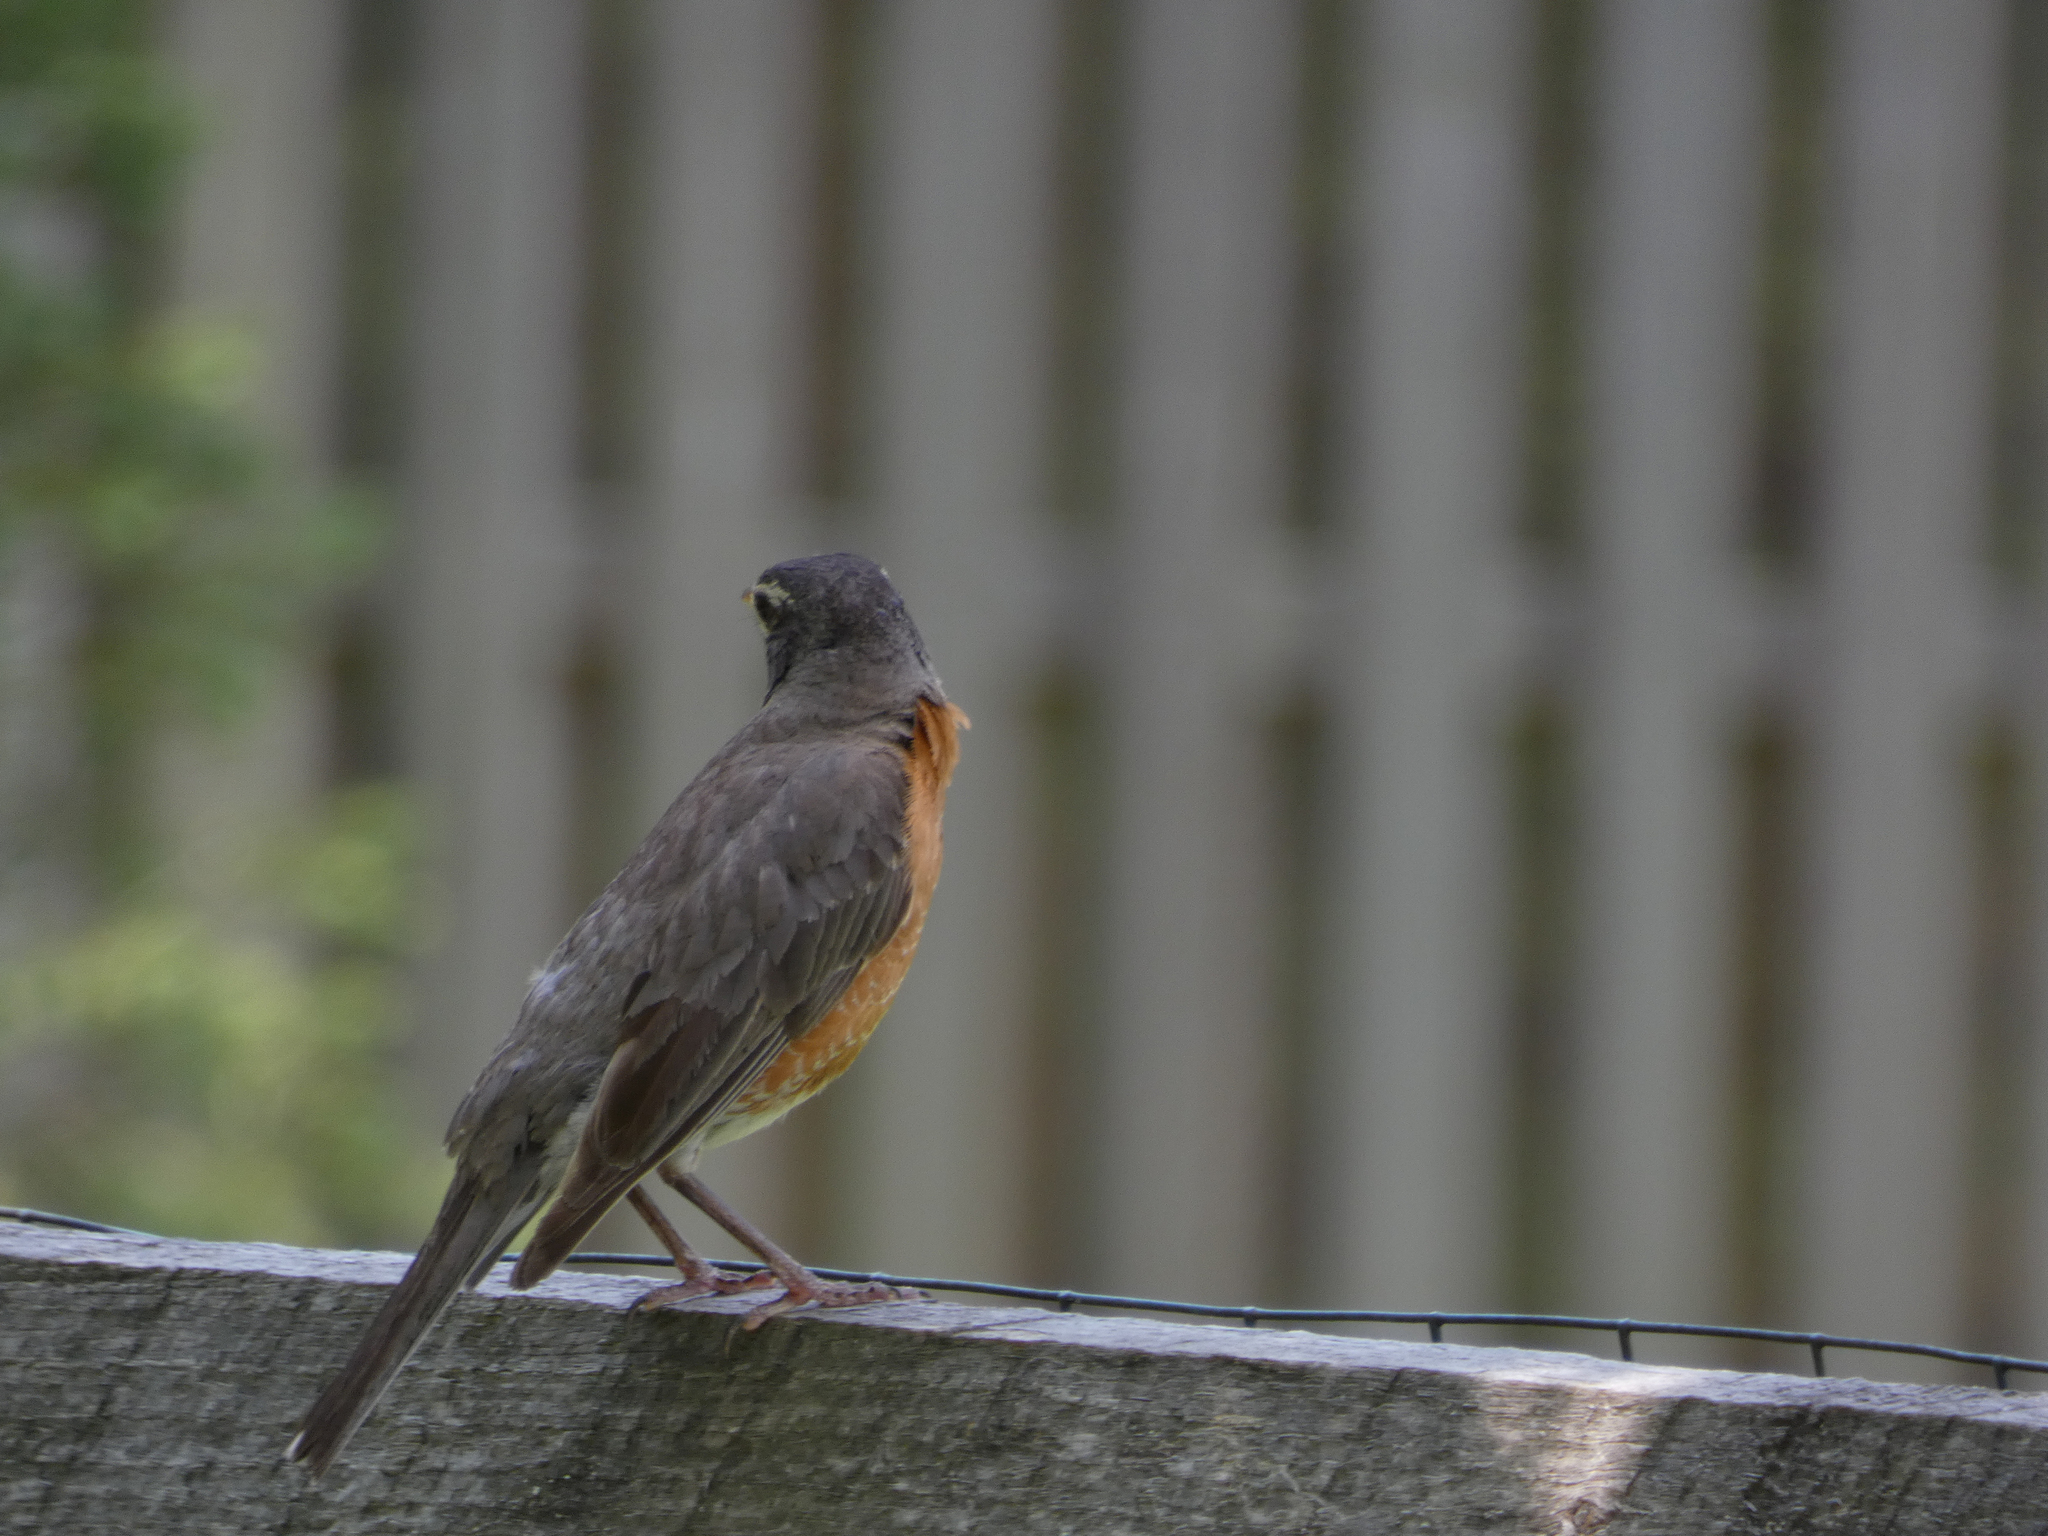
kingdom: Animalia
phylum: Chordata
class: Aves
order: Passeriformes
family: Turdidae
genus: Turdus
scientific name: Turdus migratorius
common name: American robin
